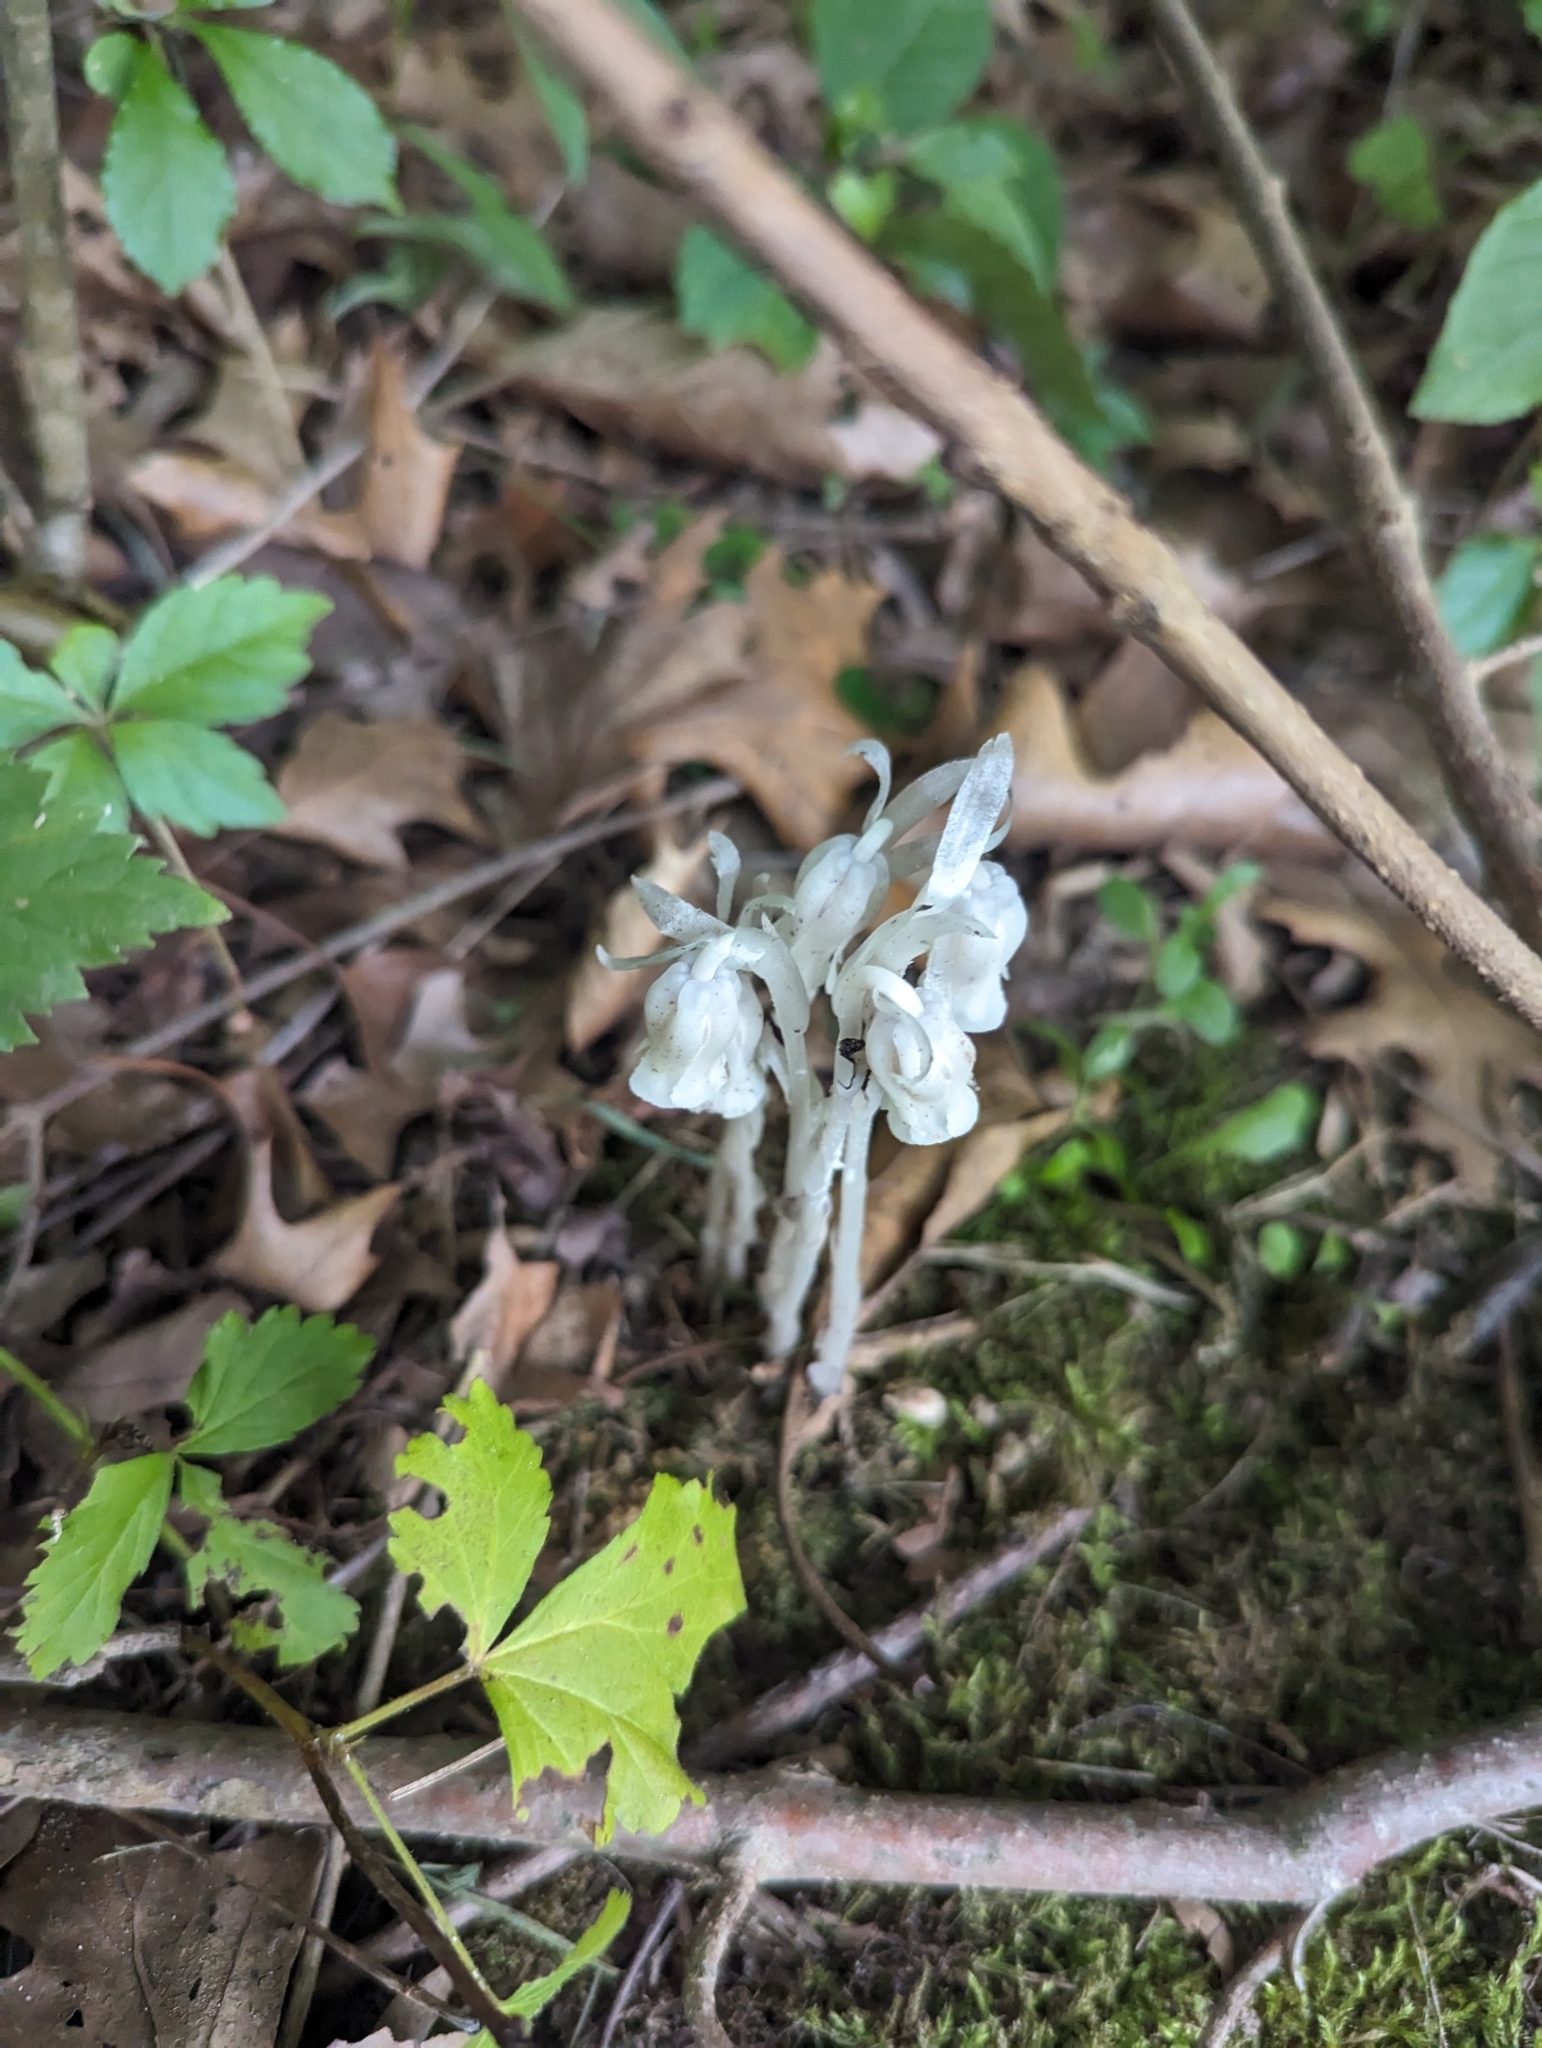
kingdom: Plantae
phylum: Tracheophyta
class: Magnoliopsida
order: Ericales
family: Ericaceae
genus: Monotropa
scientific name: Monotropa uniflora
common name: Convulsion root
